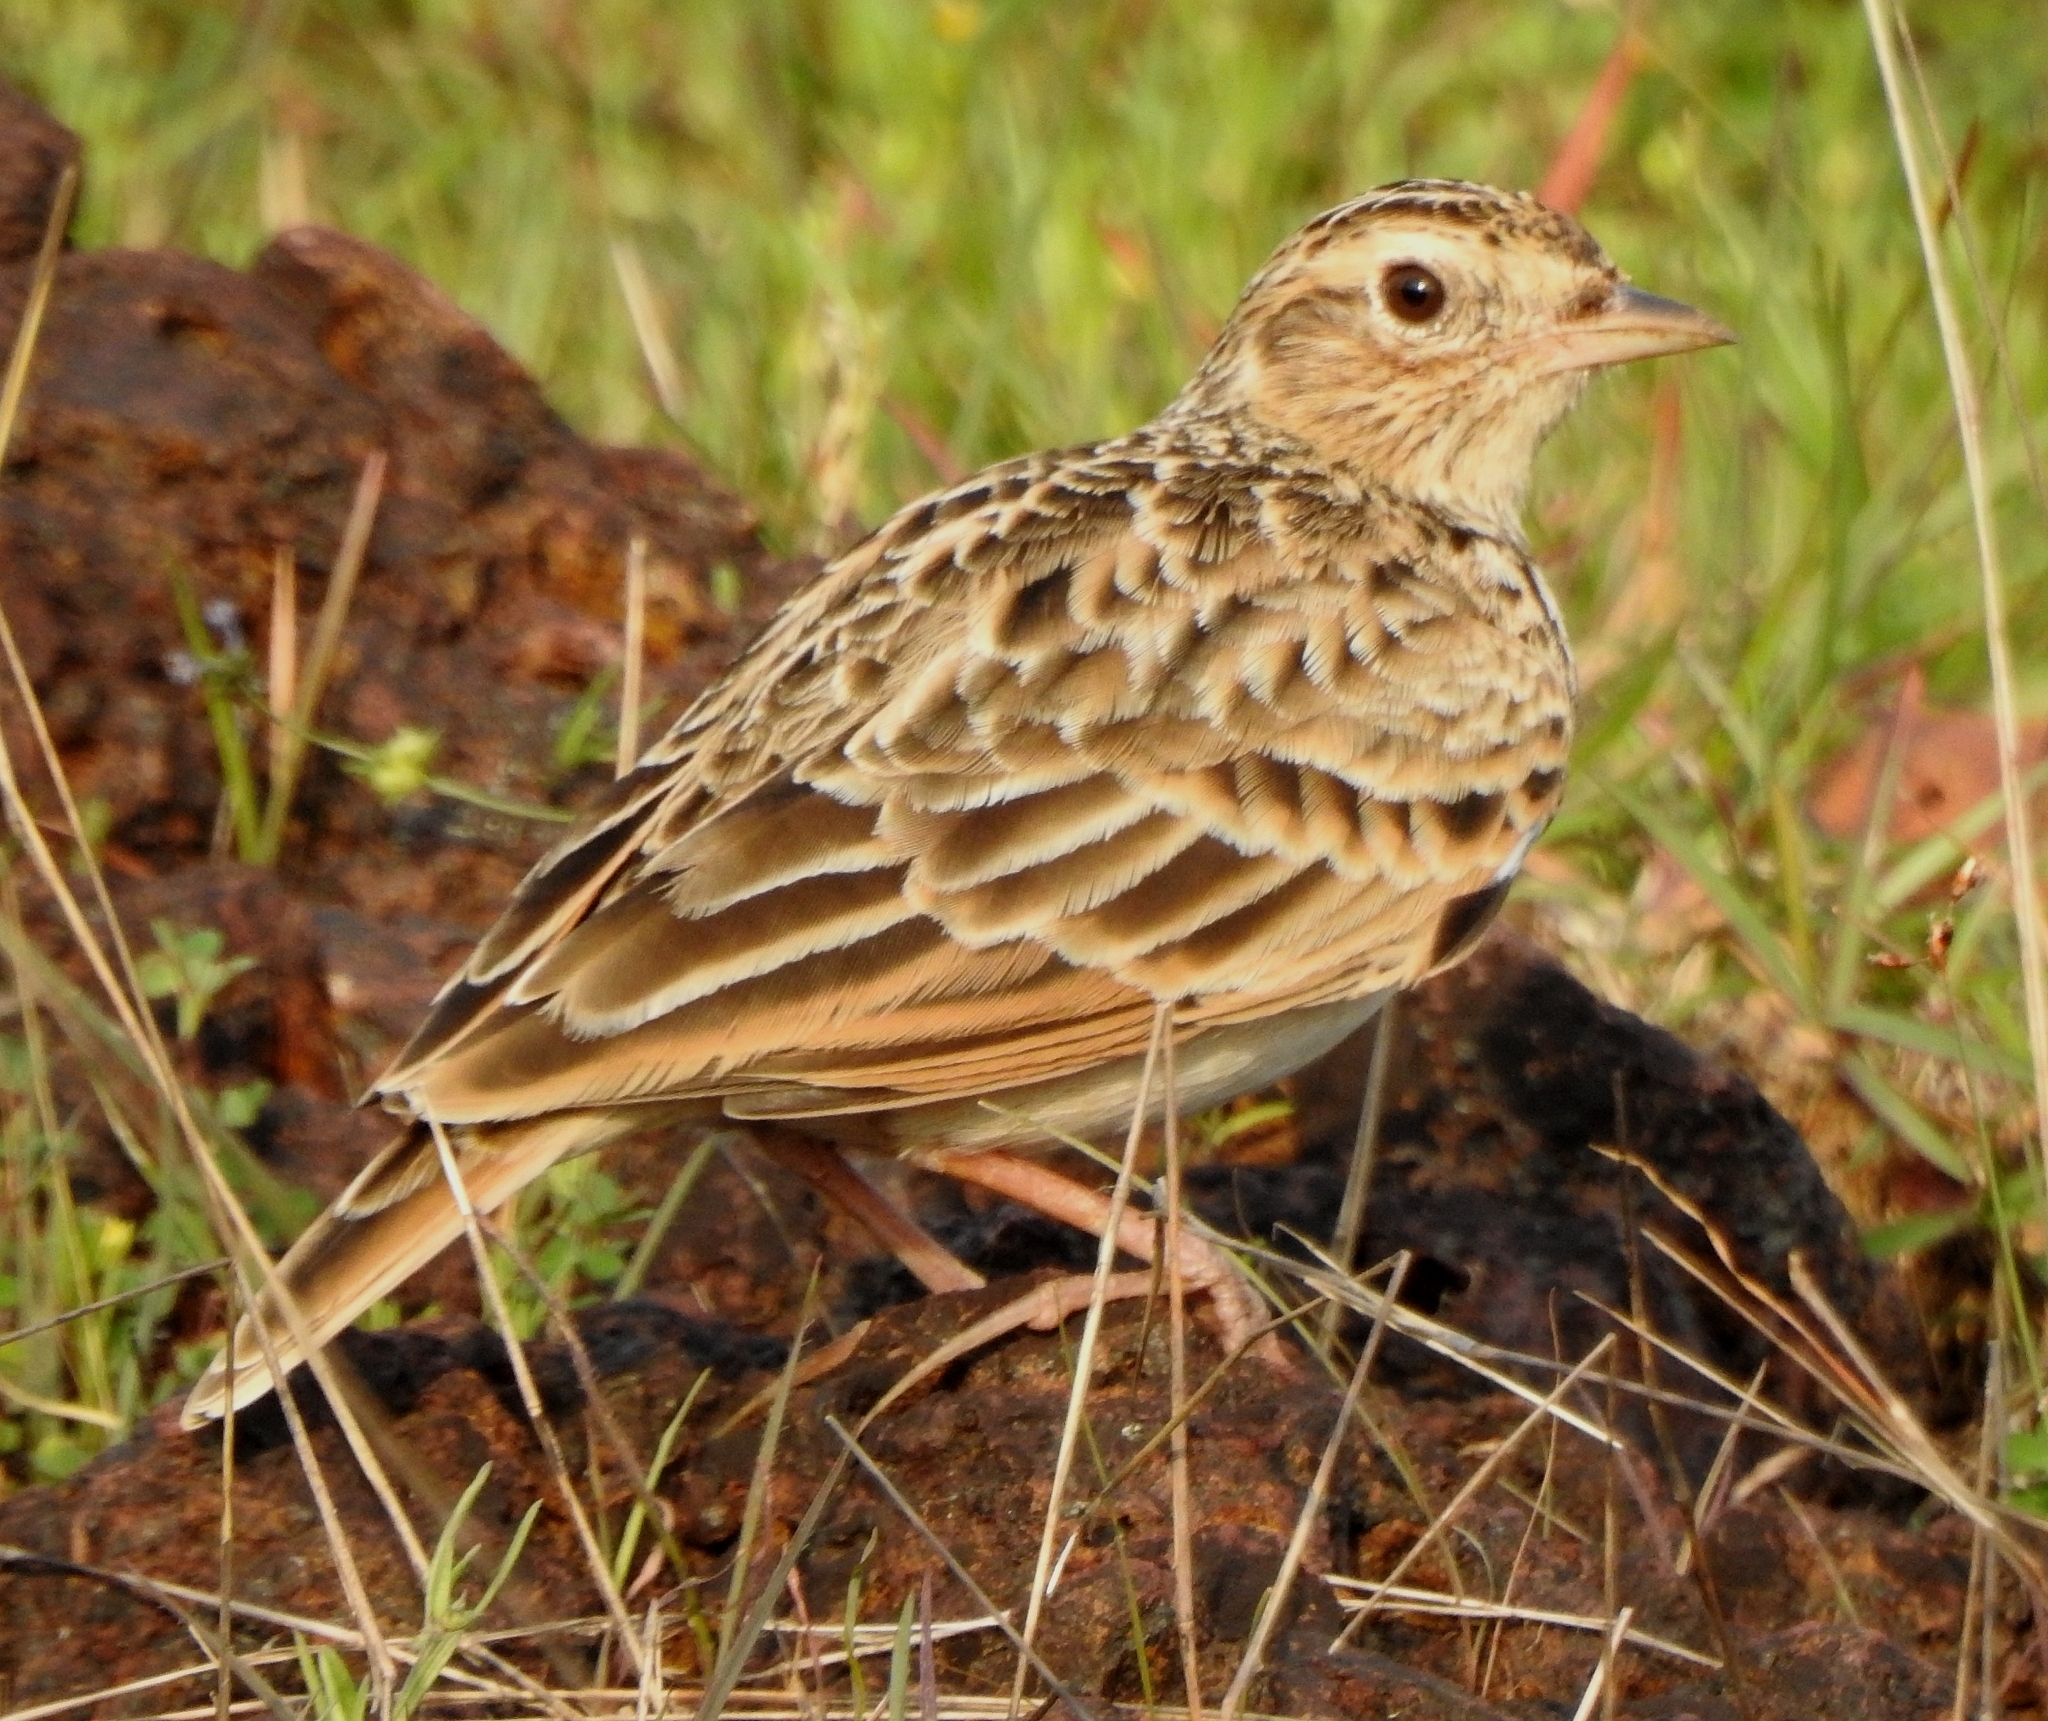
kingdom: Animalia
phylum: Chordata
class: Aves
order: Passeriformes
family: Alaudidae
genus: Alauda
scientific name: Alauda gulgula
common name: Oriental skylark
